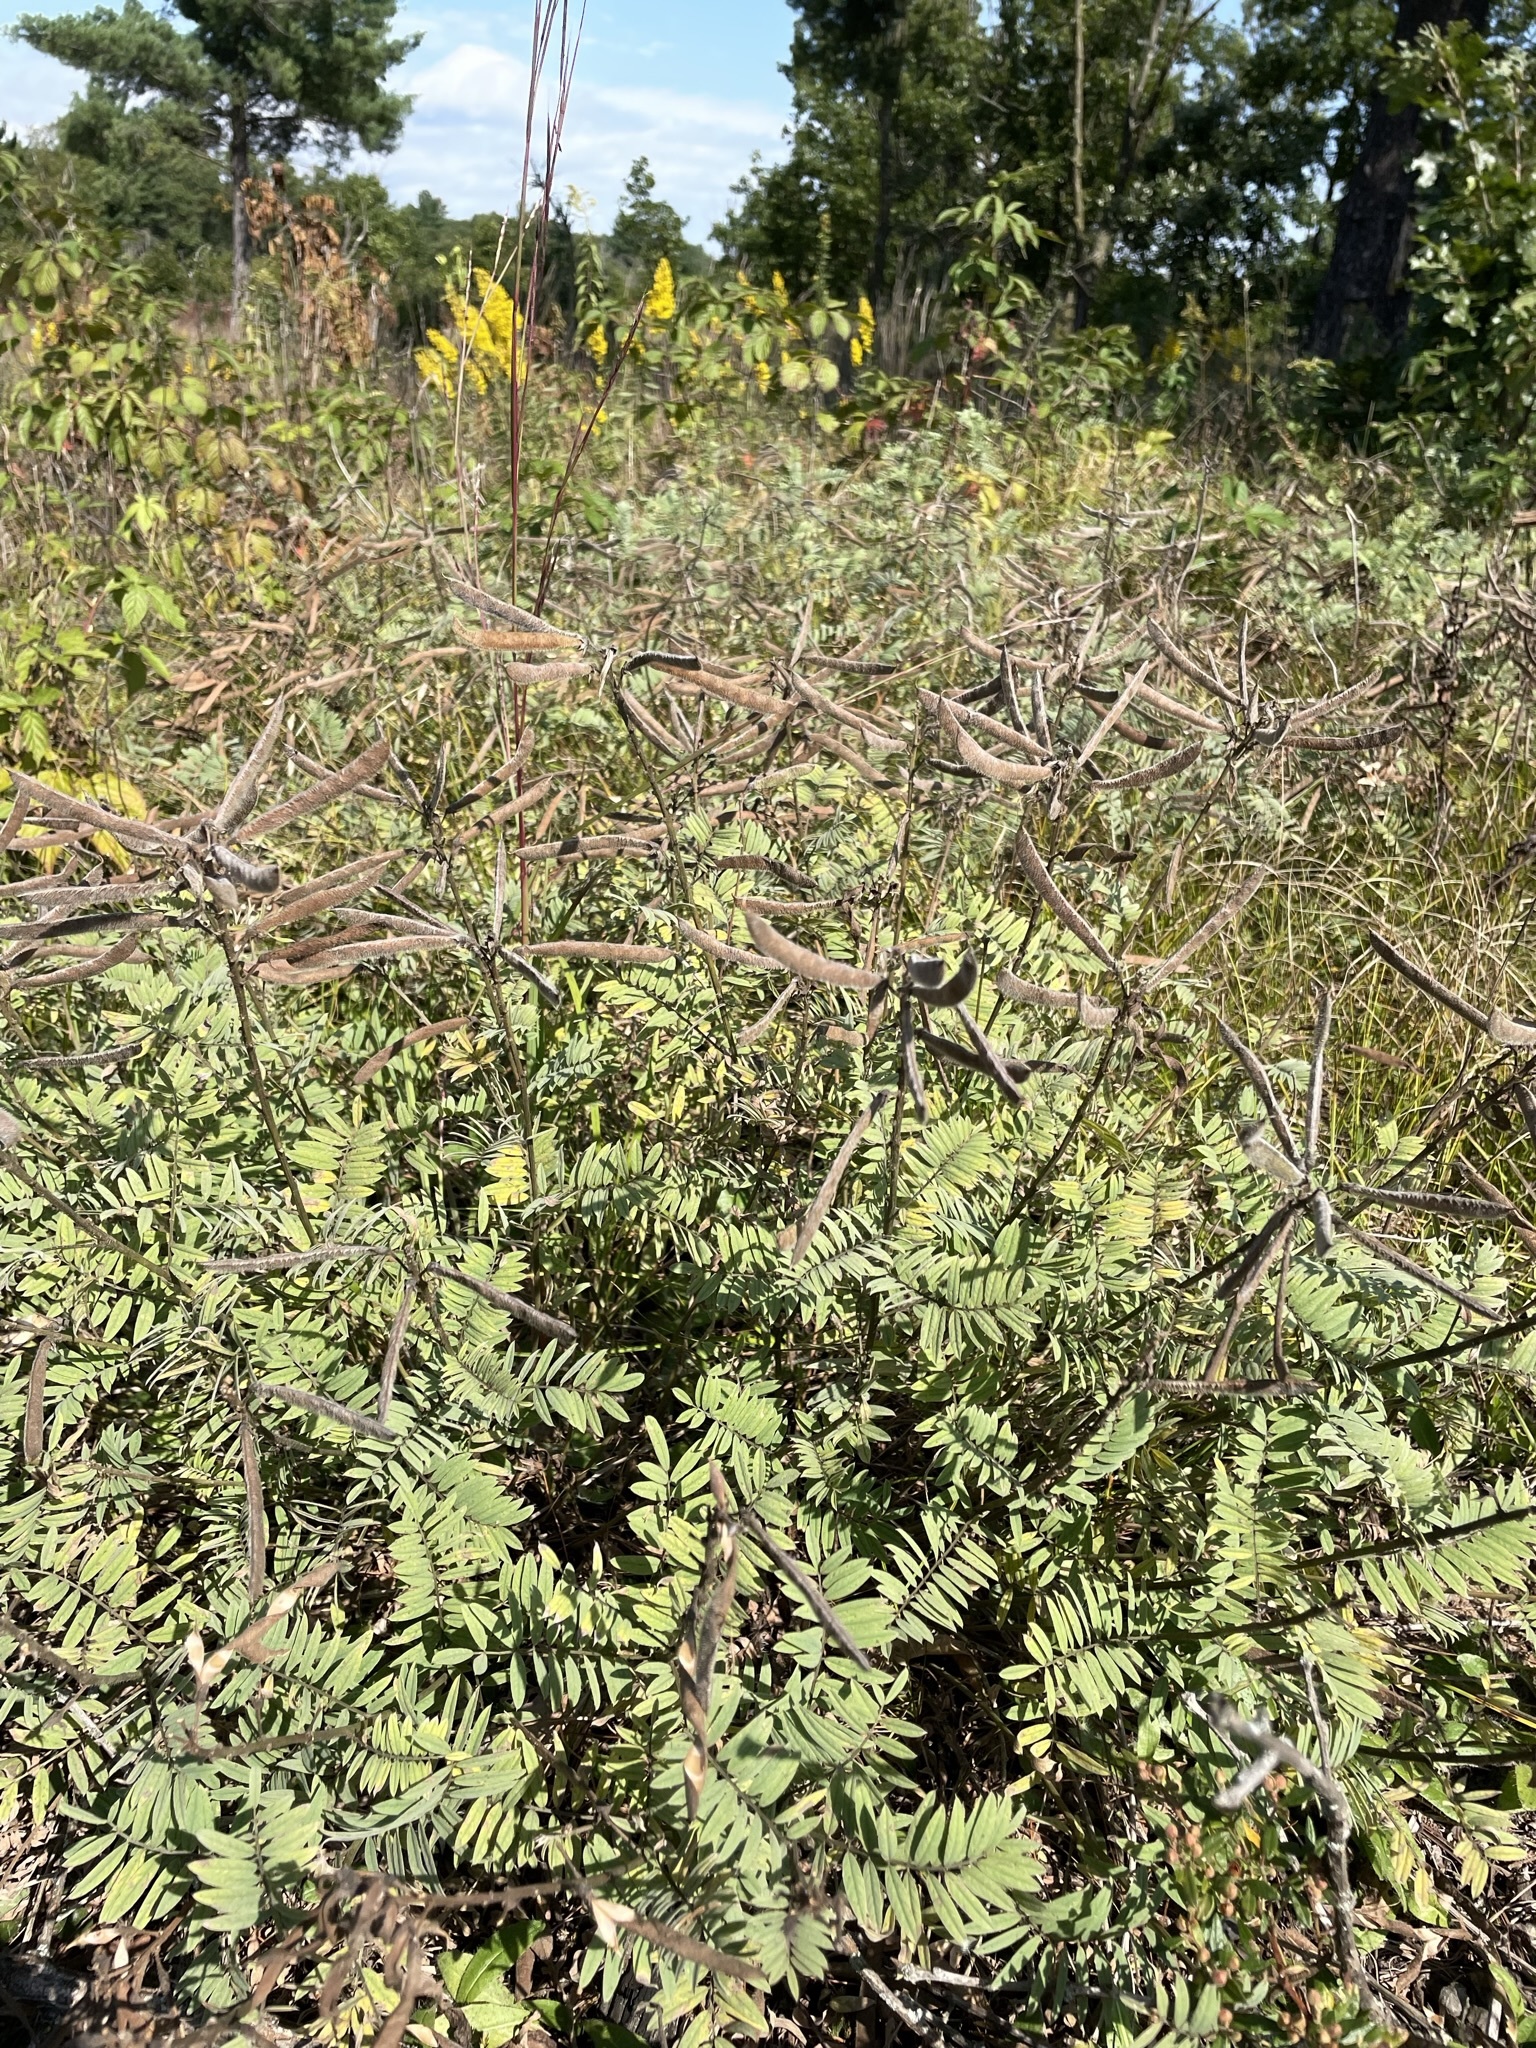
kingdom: Plantae
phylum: Tracheophyta
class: Magnoliopsida
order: Fabales
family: Fabaceae
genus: Tephrosia
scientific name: Tephrosia virginiana
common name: Rabbit-pea
